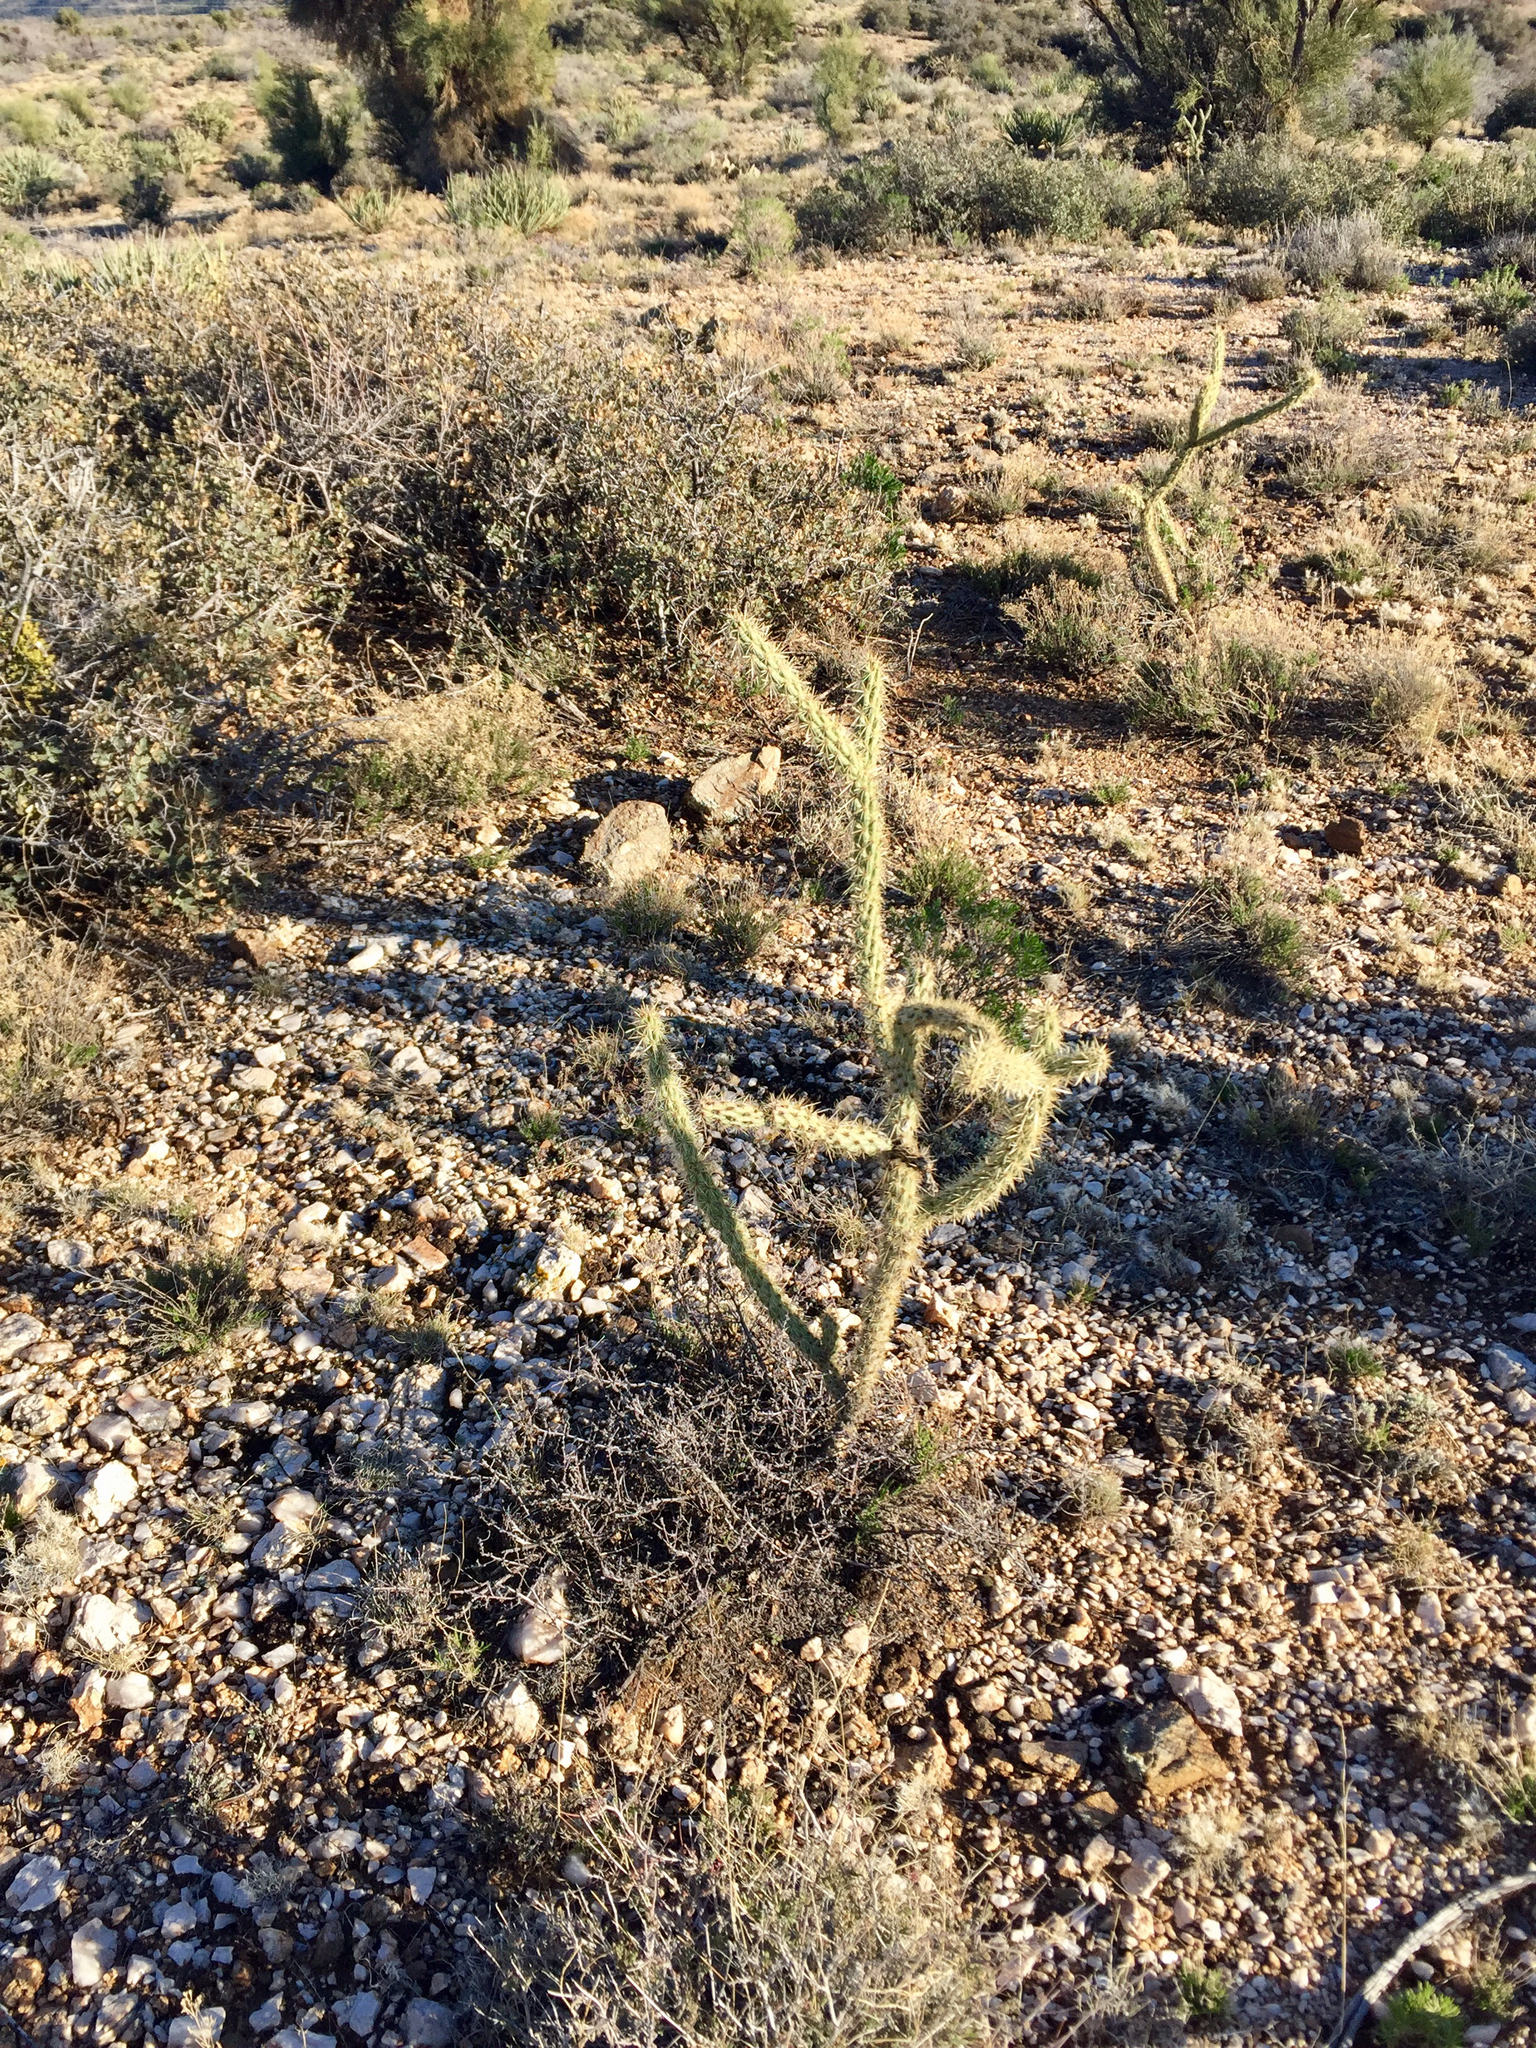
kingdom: Plantae
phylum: Tracheophyta
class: Magnoliopsida
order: Caryophyllales
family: Cactaceae
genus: Cylindropuntia
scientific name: Cylindropuntia acanthocarpa
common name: Buckhorn cholla
